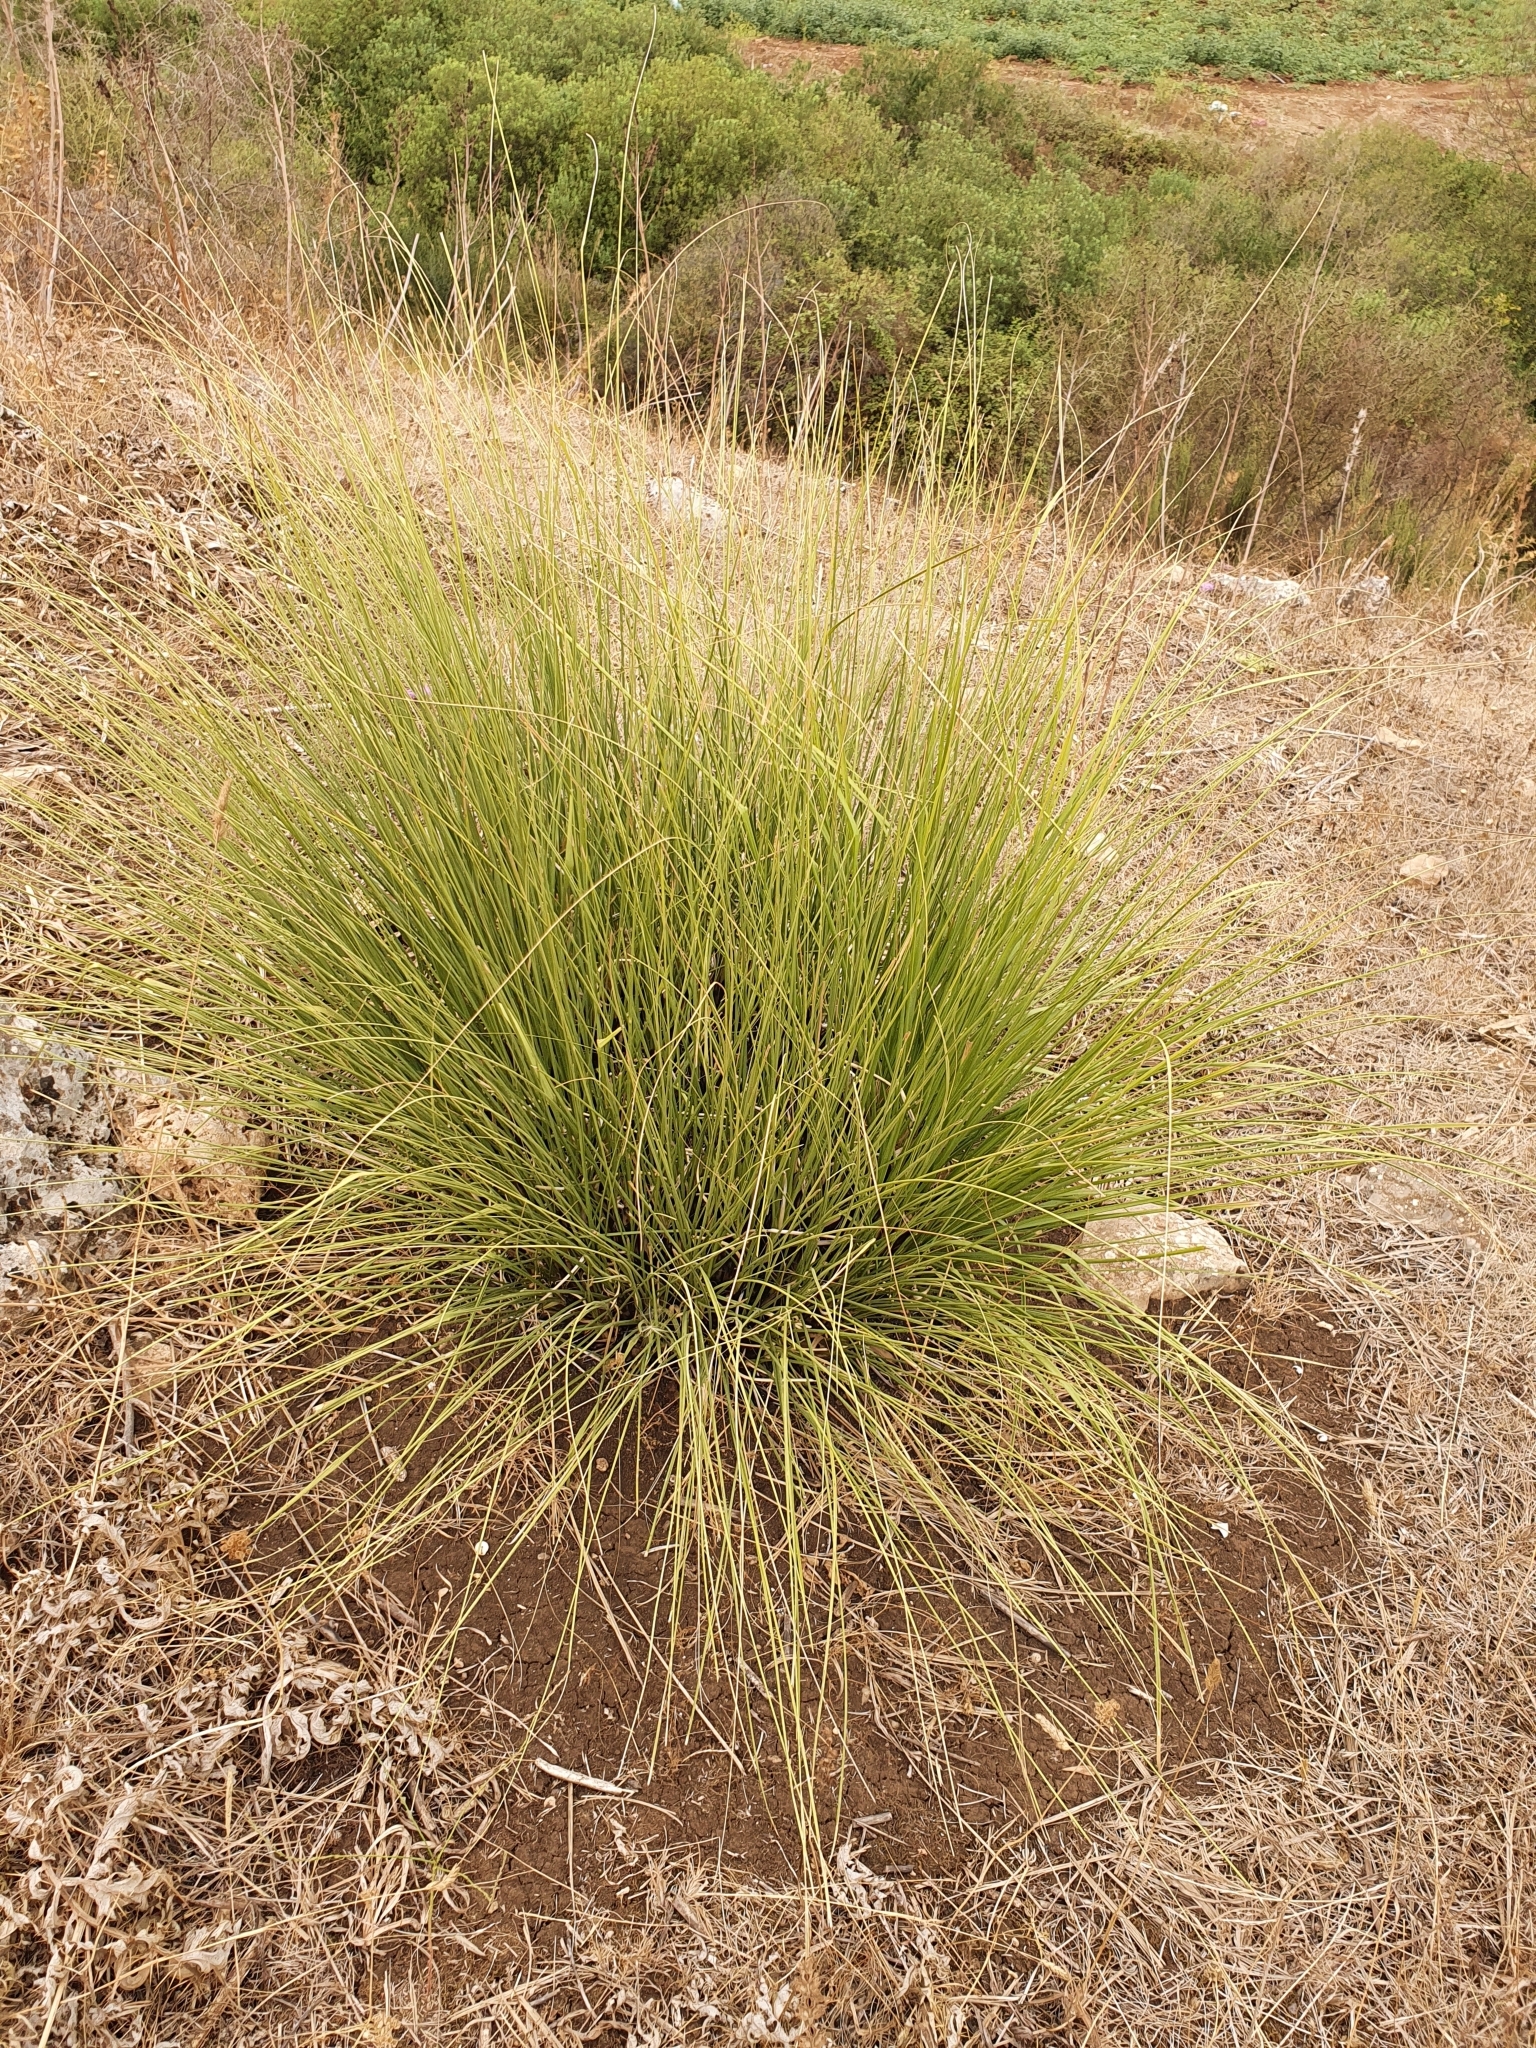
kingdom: Plantae
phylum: Tracheophyta
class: Liliopsida
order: Poales
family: Poaceae
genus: Ampelodesmos
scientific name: Ampelodesmos mauritanicus
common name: Mauritanian grass
